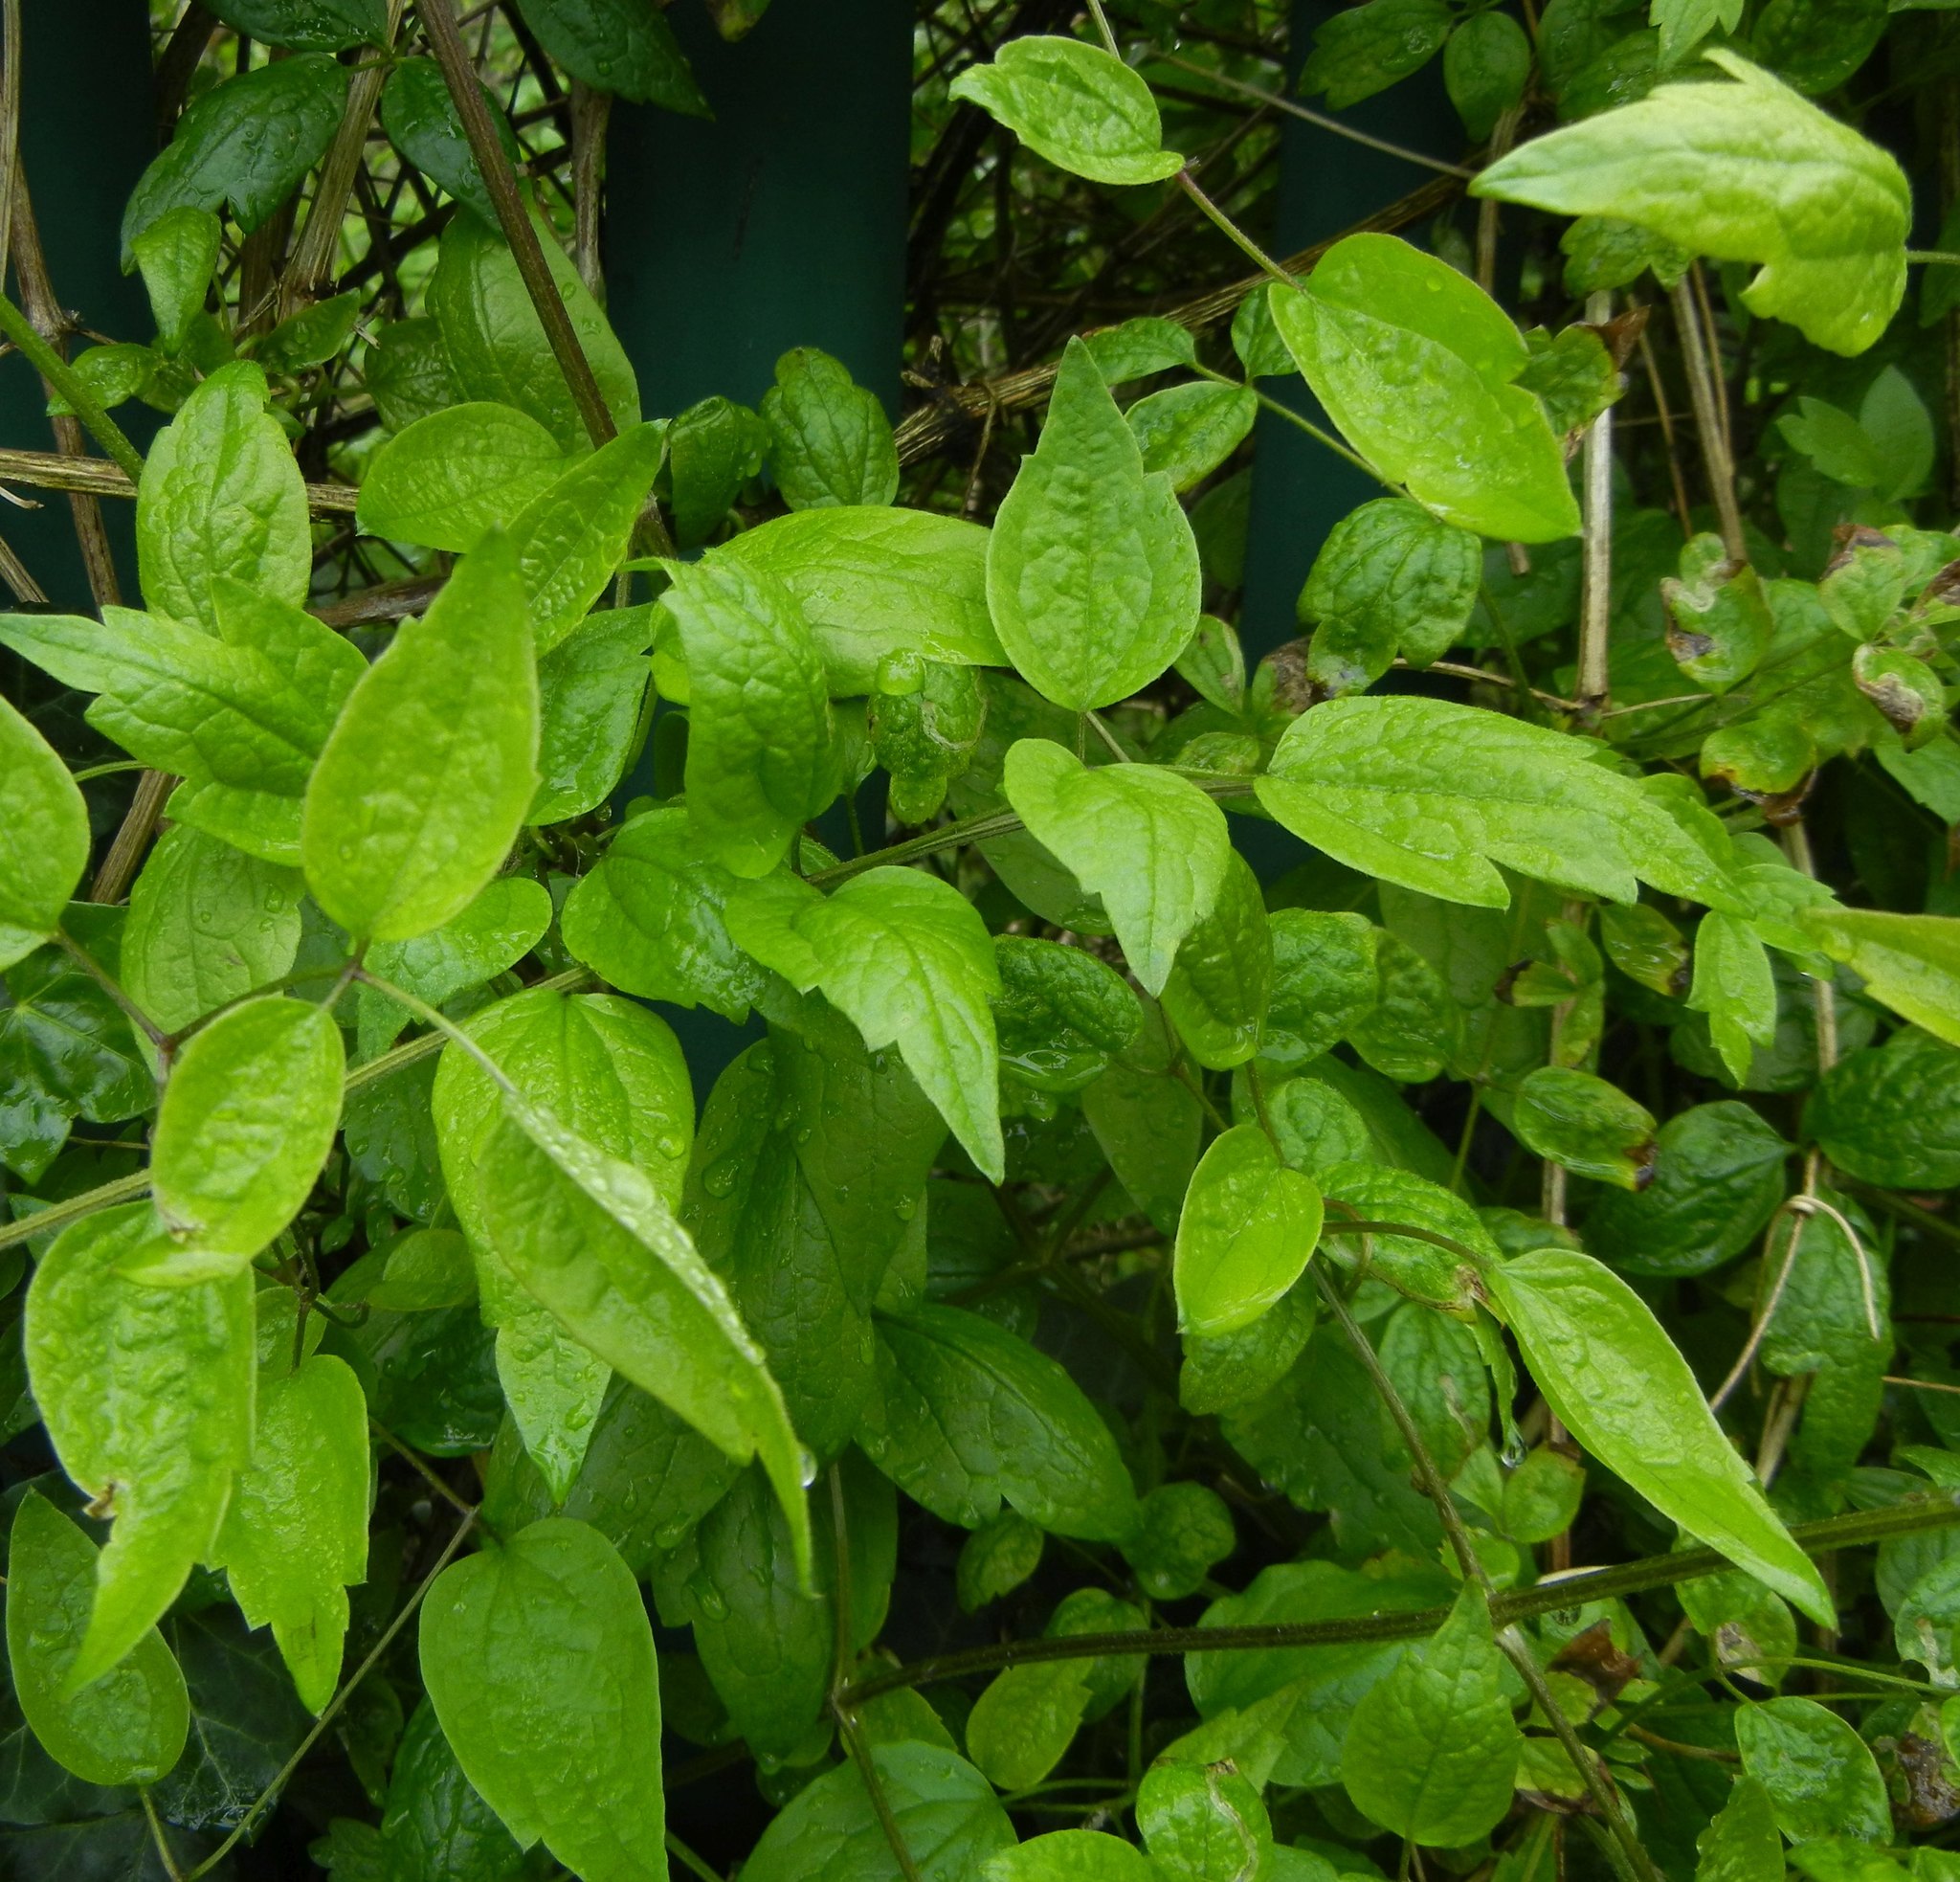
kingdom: Plantae
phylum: Tracheophyta
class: Magnoliopsida
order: Ranunculales
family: Ranunculaceae
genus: Clematis
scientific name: Clematis vitalba
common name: Evergreen clematis
